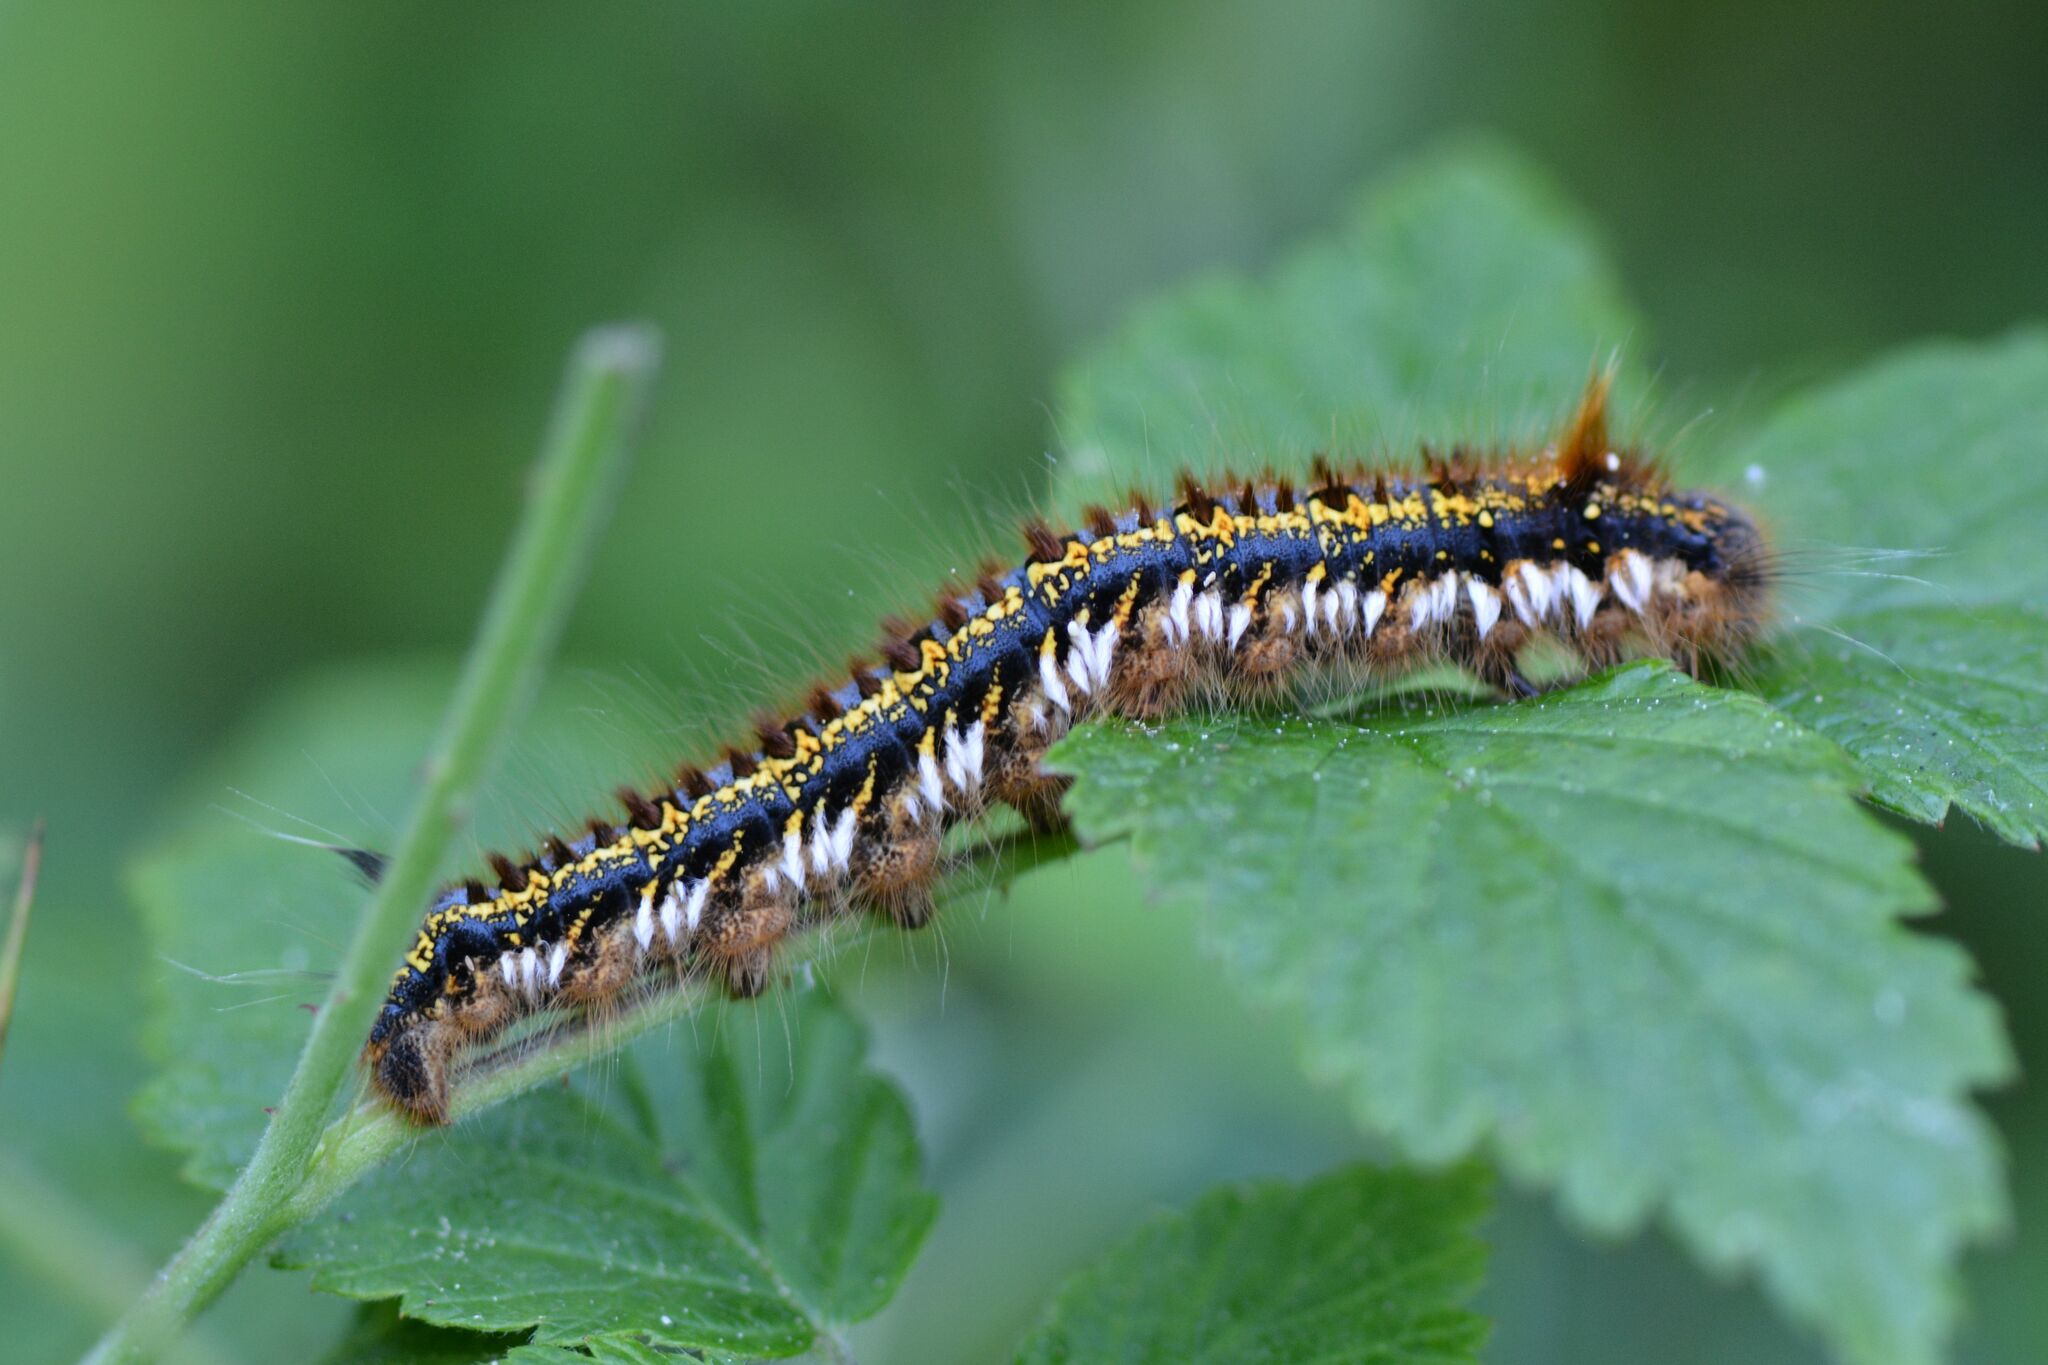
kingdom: Animalia
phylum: Arthropoda
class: Insecta
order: Lepidoptera
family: Lasiocampidae
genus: Euthrix
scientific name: Euthrix potatoria
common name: Drinker
